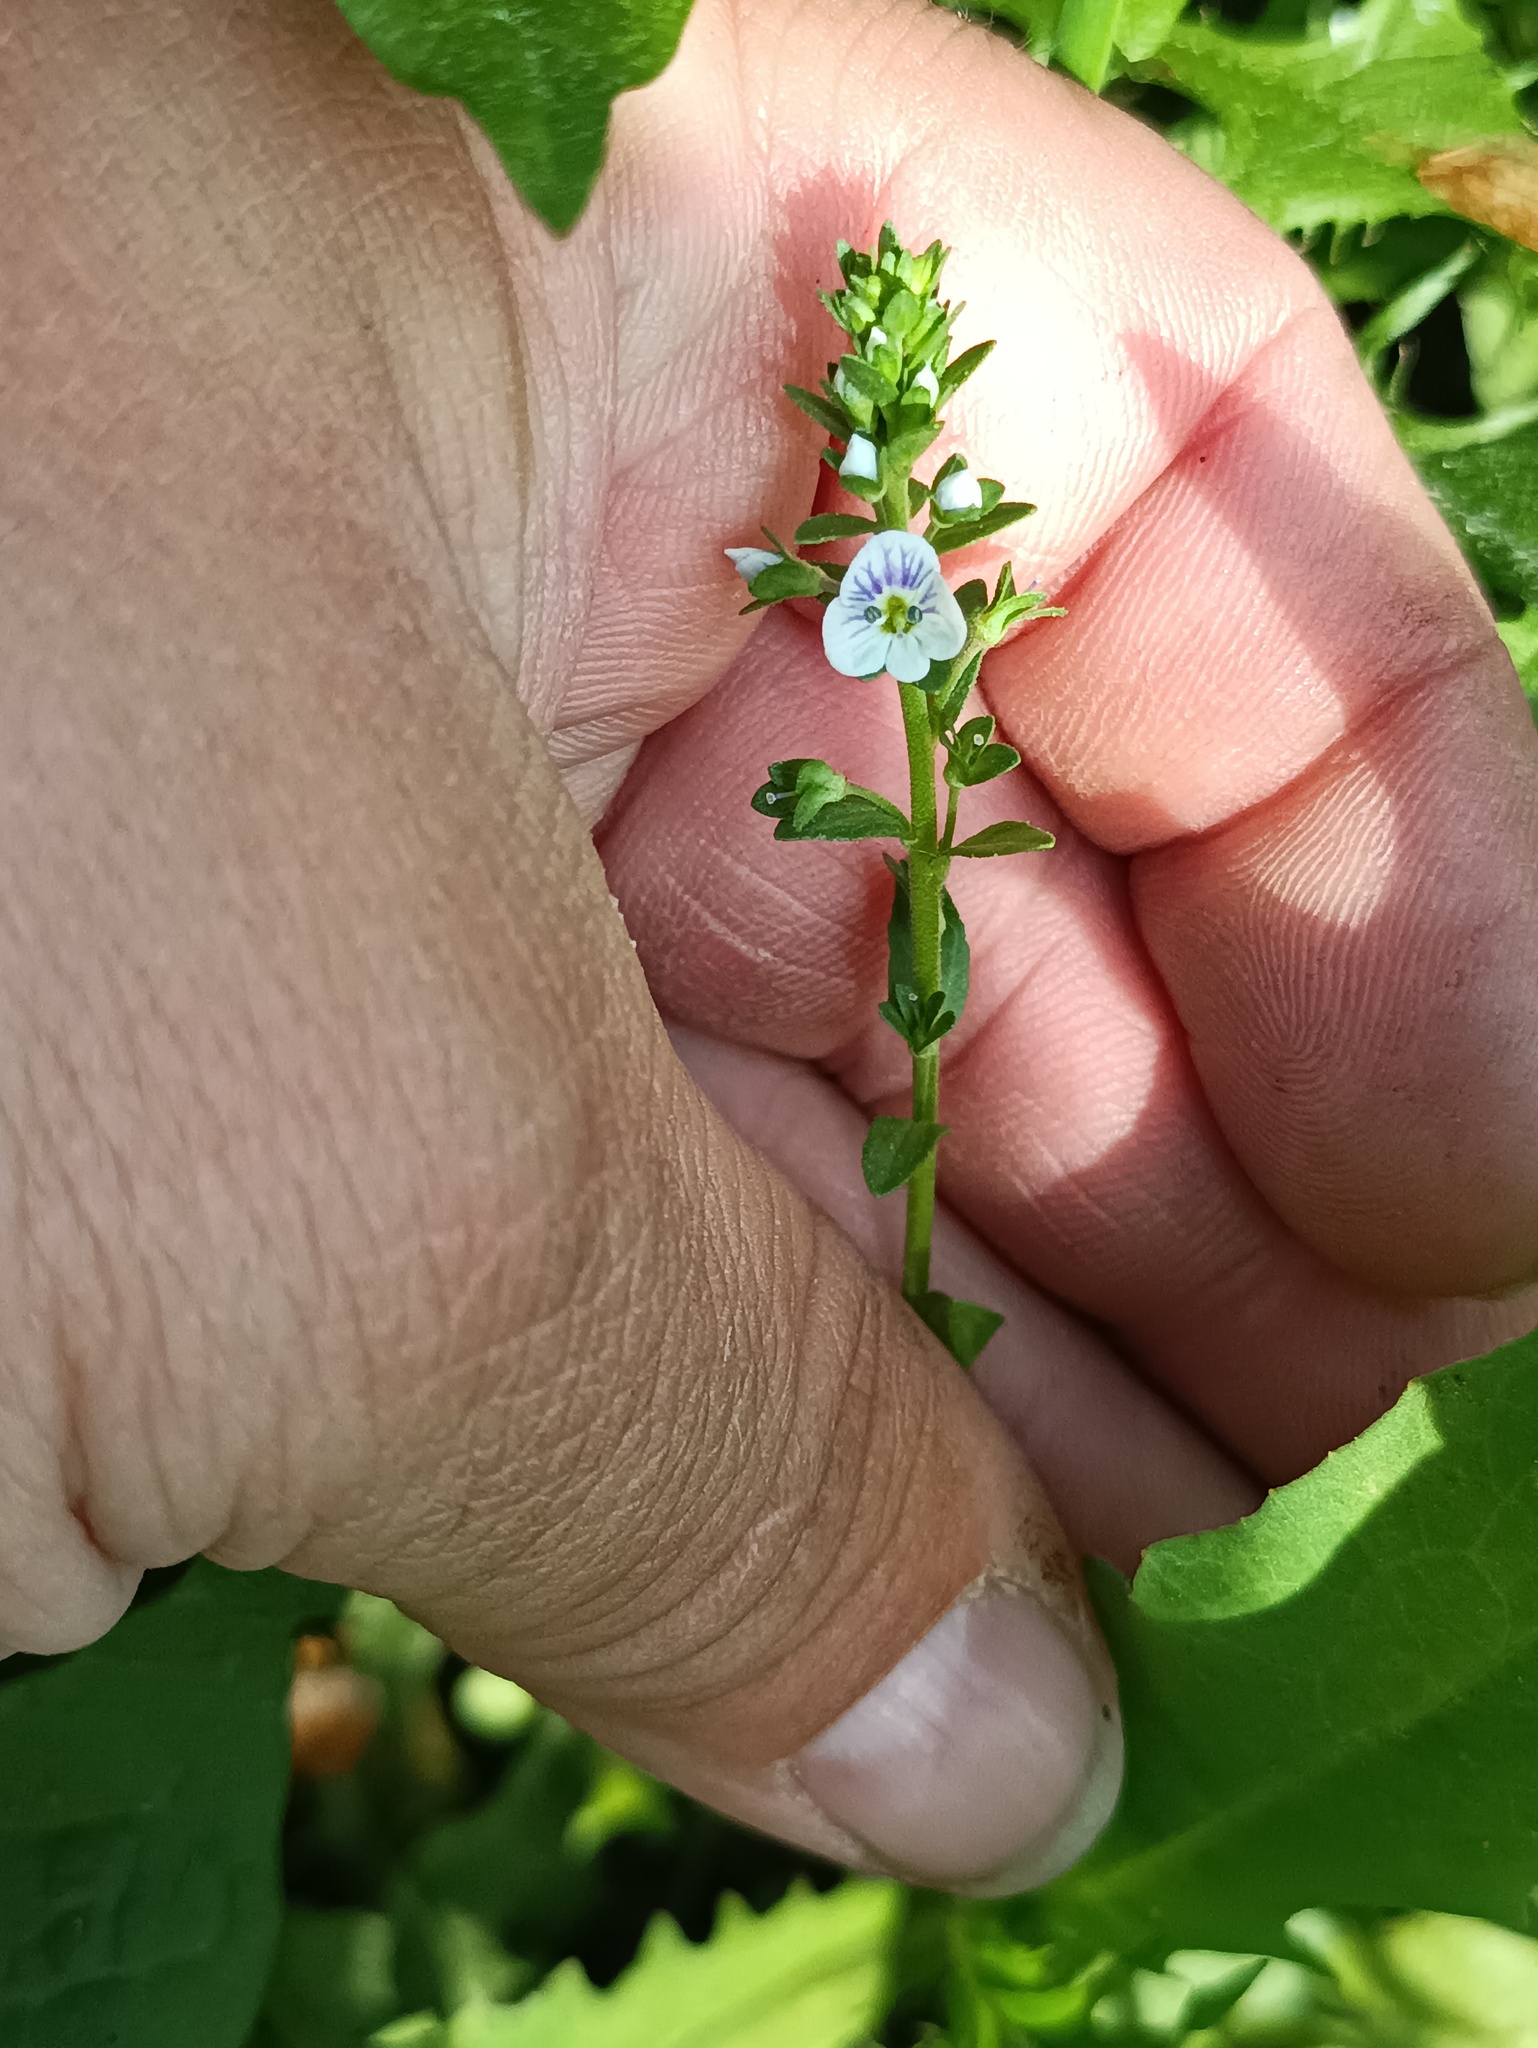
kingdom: Plantae
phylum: Tracheophyta
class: Magnoliopsida
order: Lamiales
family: Plantaginaceae
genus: Veronica
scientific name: Veronica serpyllifolia
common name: Thyme-leaved speedwell
